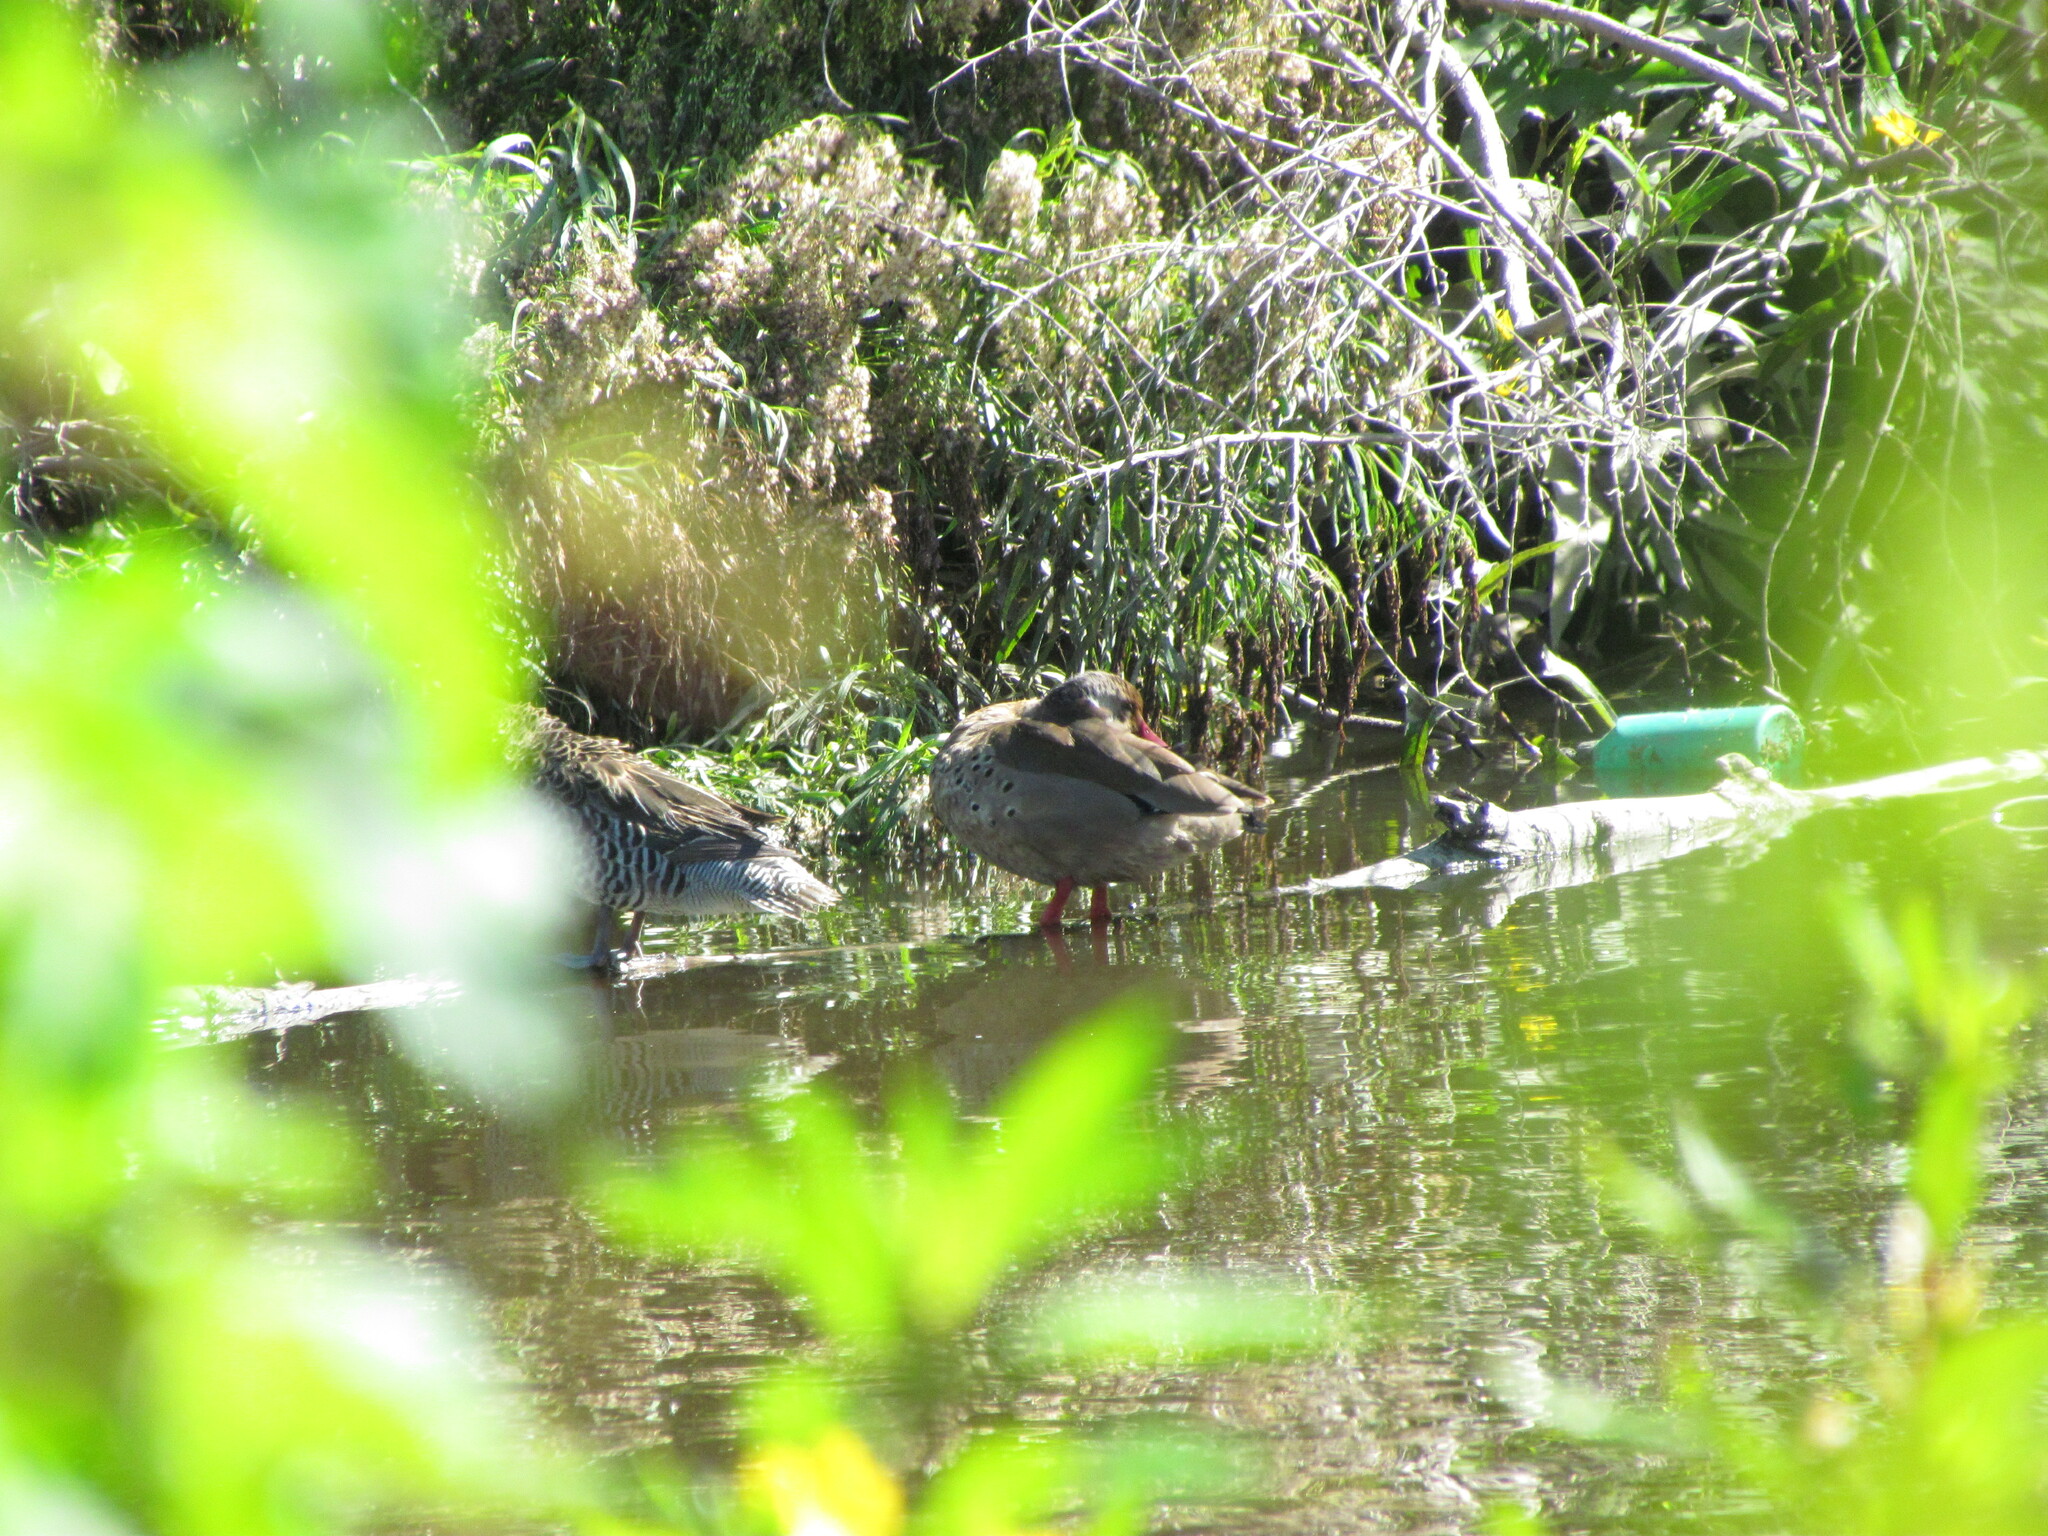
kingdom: Animalia
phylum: Chordata
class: Aves
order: Anseriformes
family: Anatidae
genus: Amazonetta
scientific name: Amazonetta brasiliensis
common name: Brazilian teal
